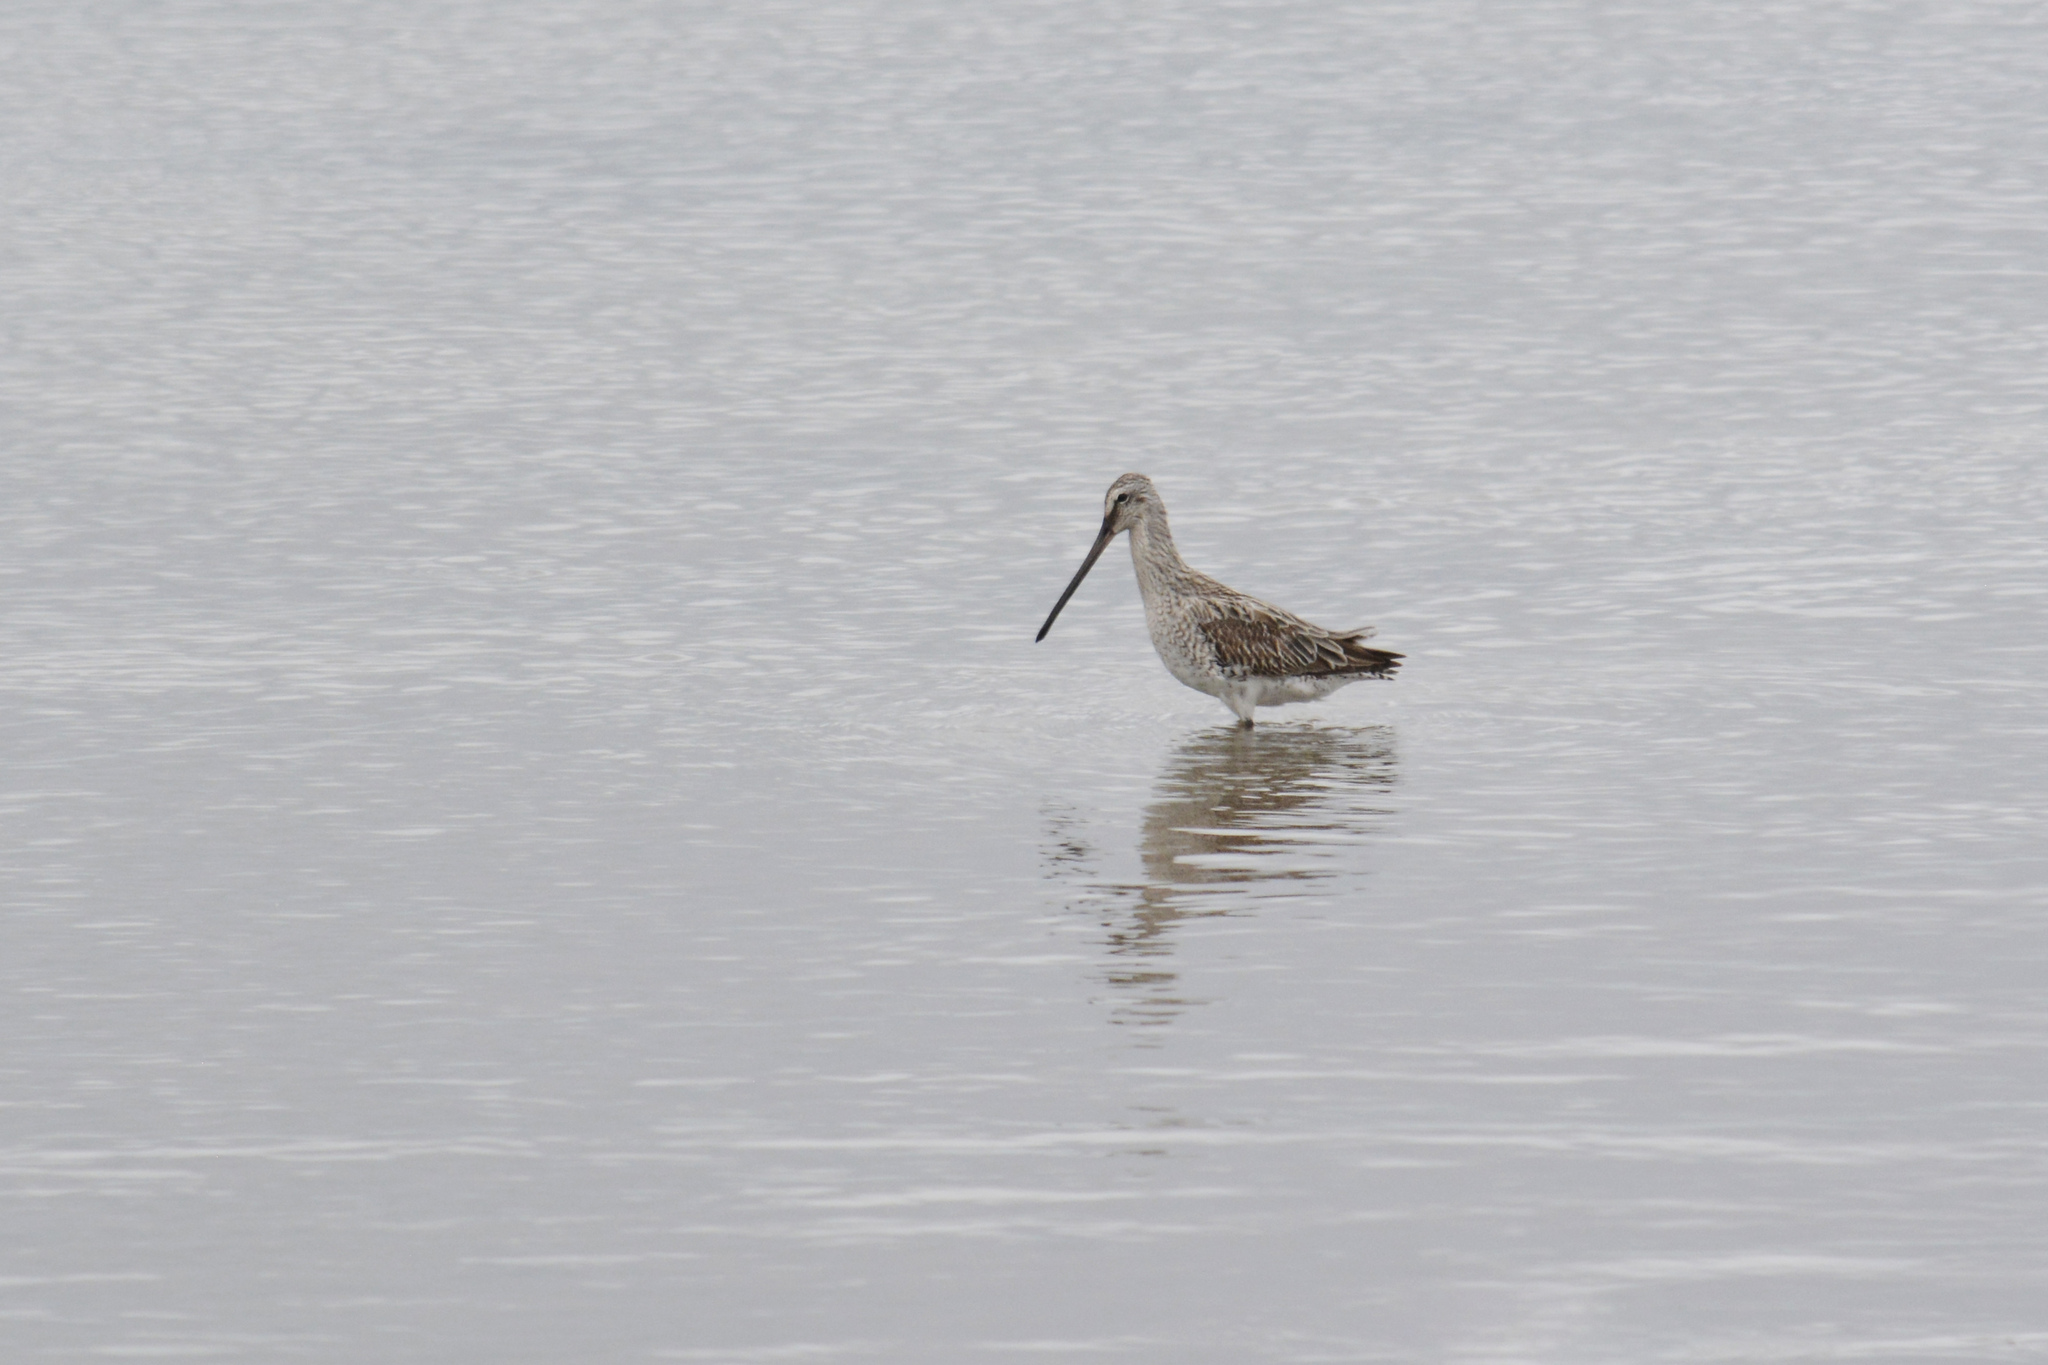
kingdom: Animalia
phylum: Chordata
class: Aves
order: Charadriiformes
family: Scolopacidae
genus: Limnodromus
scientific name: Limnodromus semipalmatus
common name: Asian dowitcher
